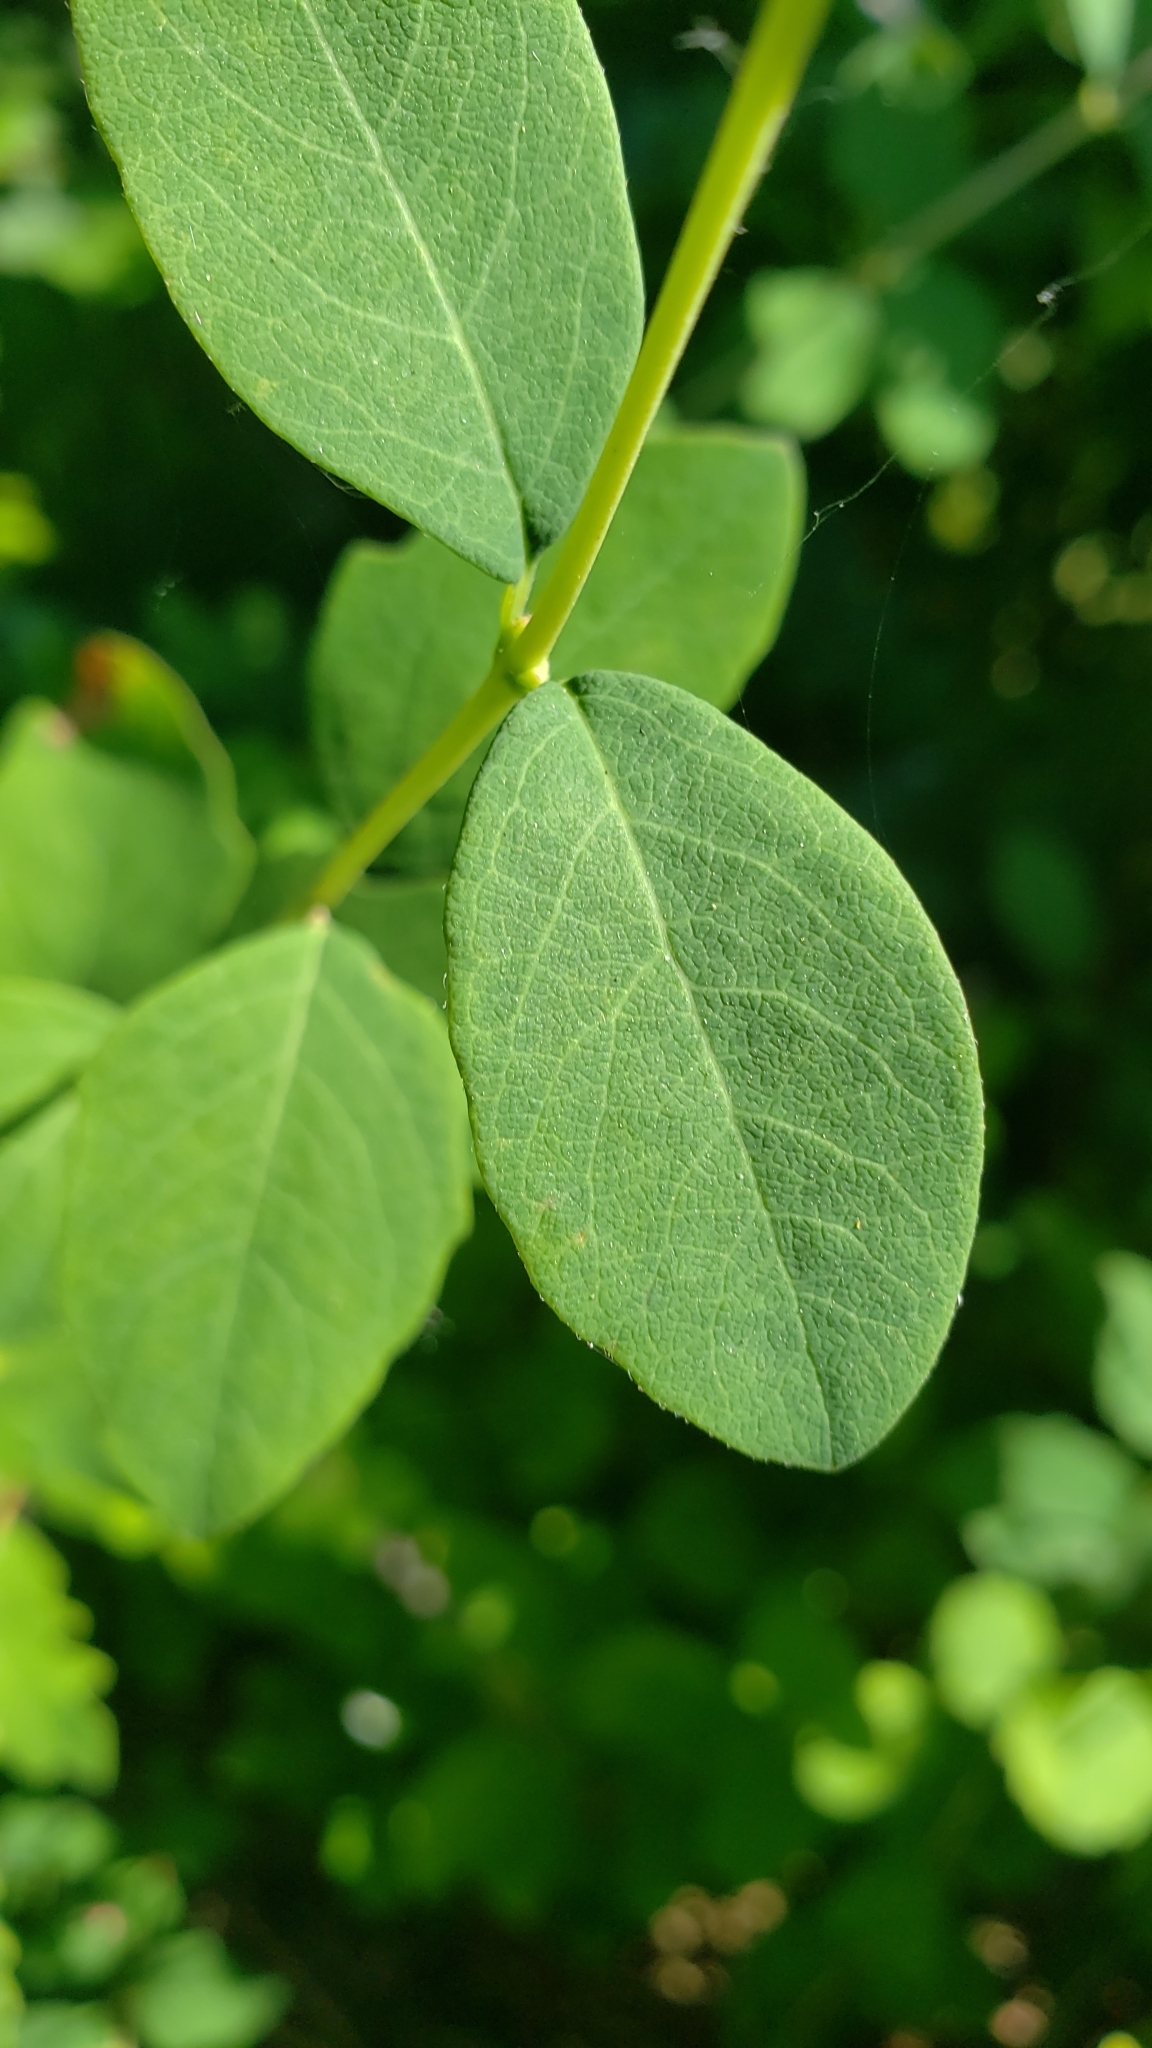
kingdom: Plantae
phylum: Tracheophyta
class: Magnoliopsida
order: Dipsacales
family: Caprifoliaceae
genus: Symphoricarpos
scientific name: Symphoricarpos albus
